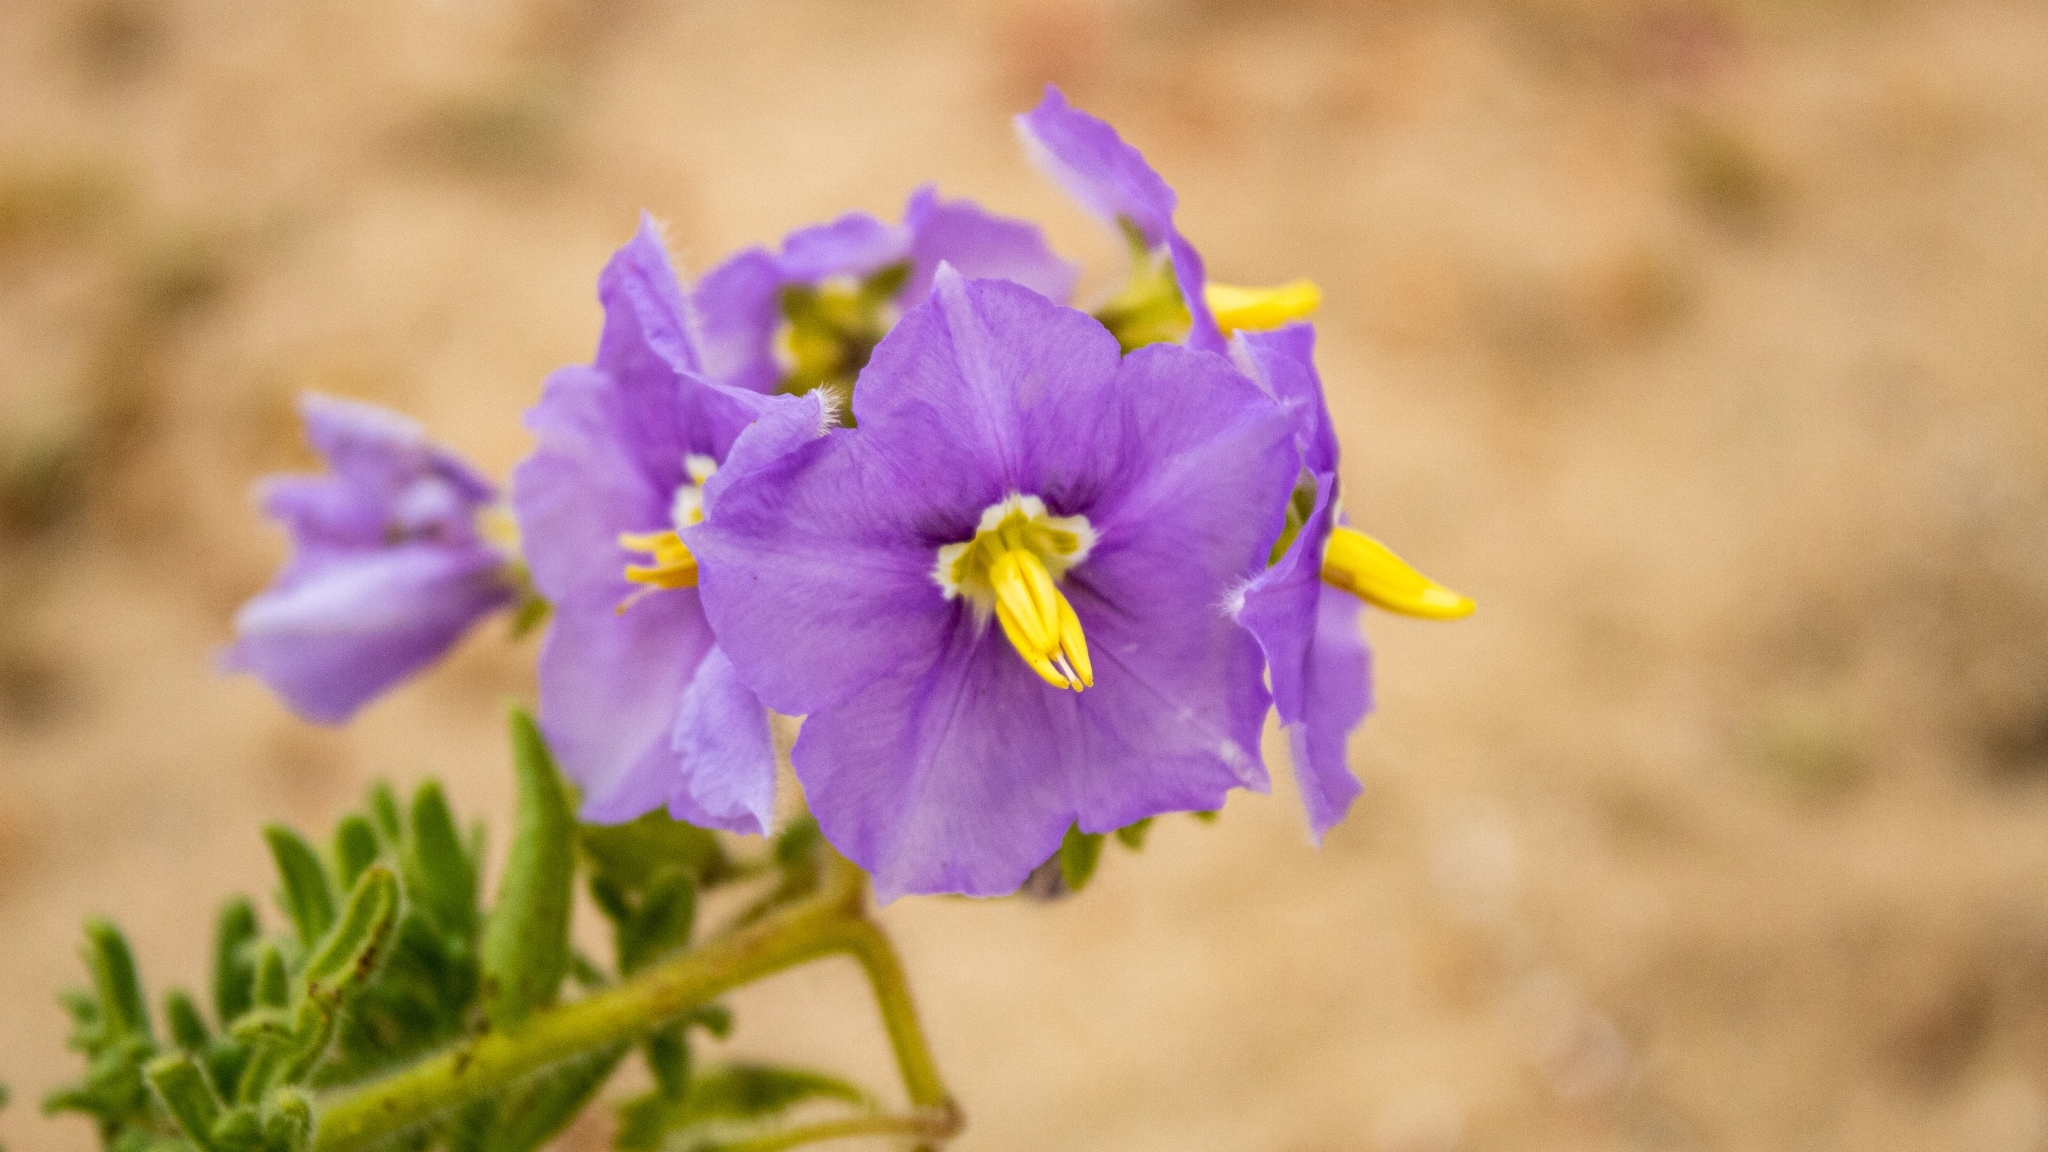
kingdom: Plantae
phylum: Tracheophyta
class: Magnoliopsida
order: Solanales
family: Solanaceae
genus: Solanum
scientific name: Solanum trinominum
